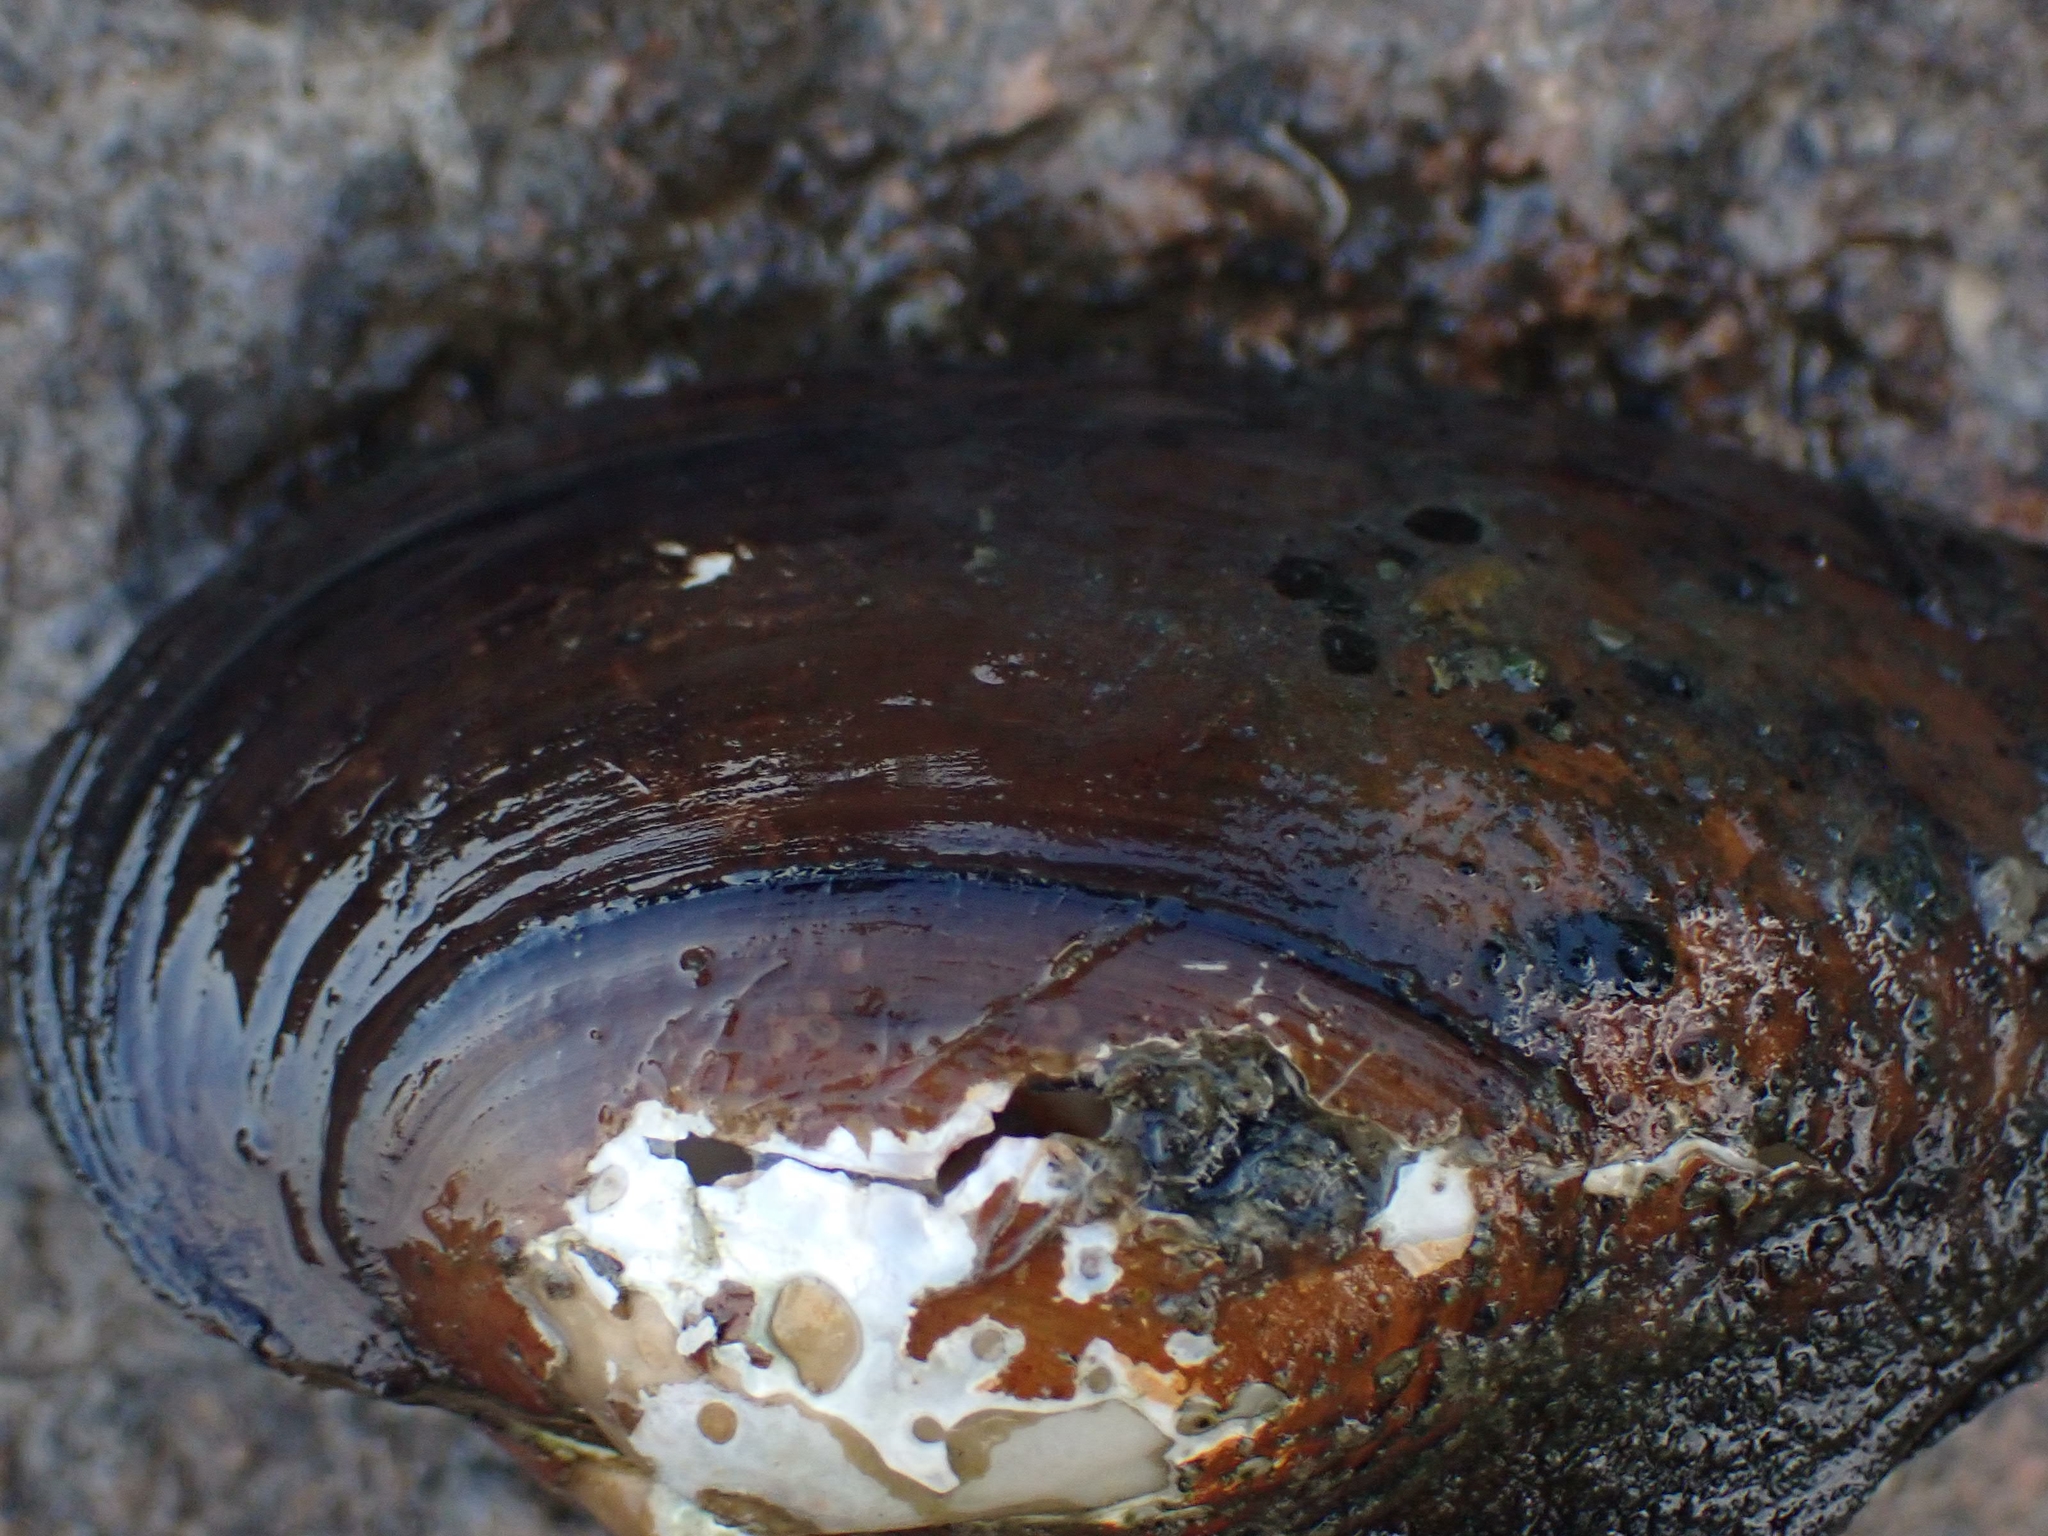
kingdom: Animalia
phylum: Mollusca
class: Bivalvia
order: Unionida
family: Unionidae
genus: Pyganodon
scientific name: Pyganodon grandis
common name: Giant floater
